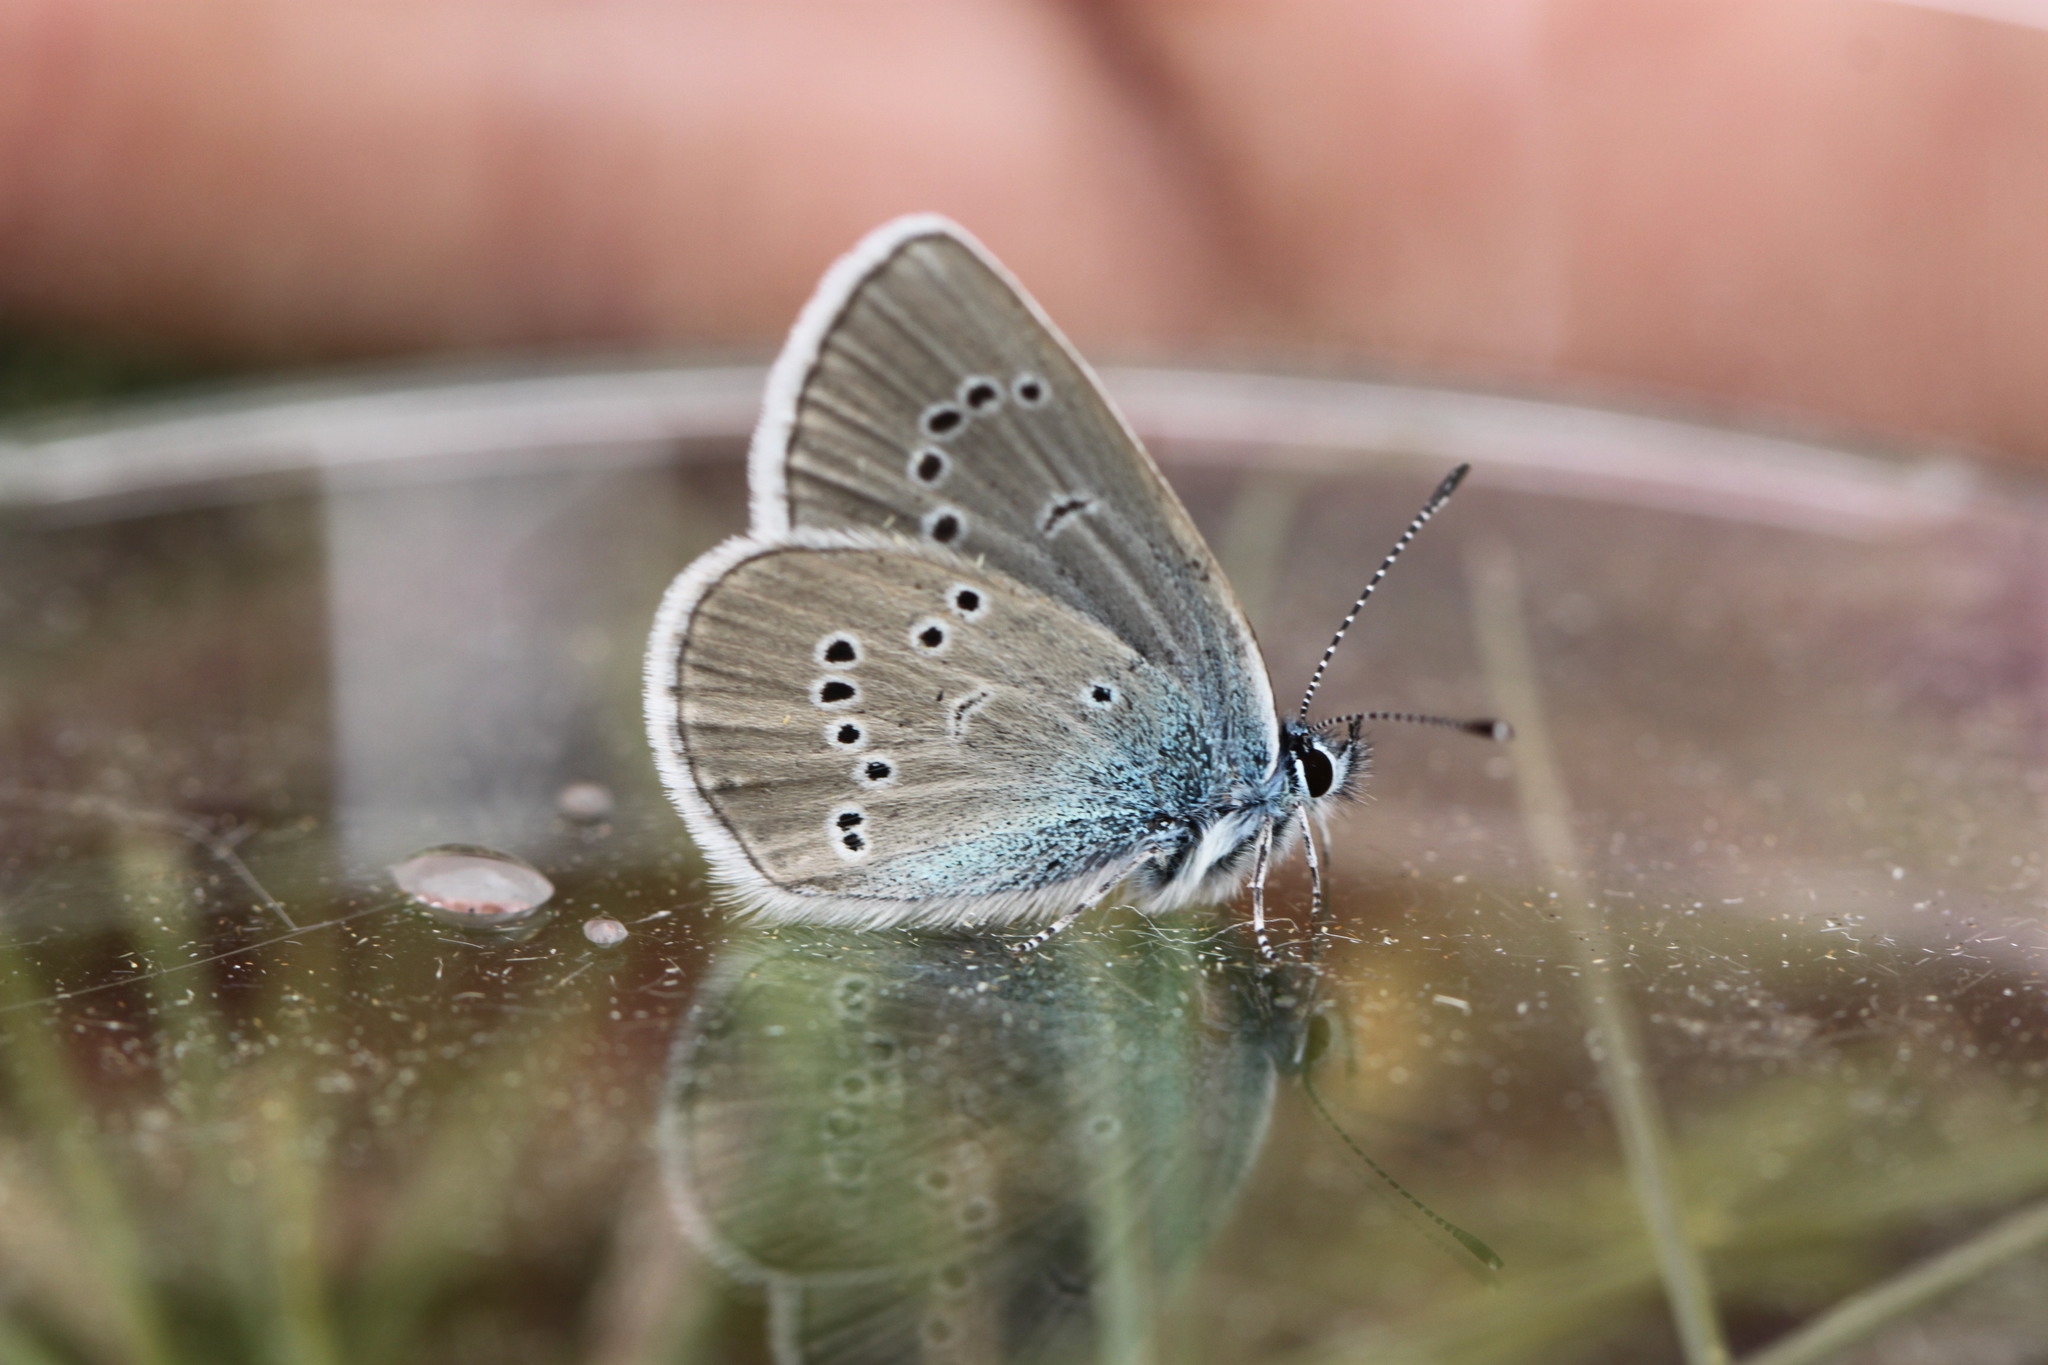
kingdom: Animalia
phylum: Arthropoda
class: Insecta
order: Lepidoptera
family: Lycaenidae
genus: Cyaniris
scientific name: Cyaniris semiargus
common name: Mazarine blue
